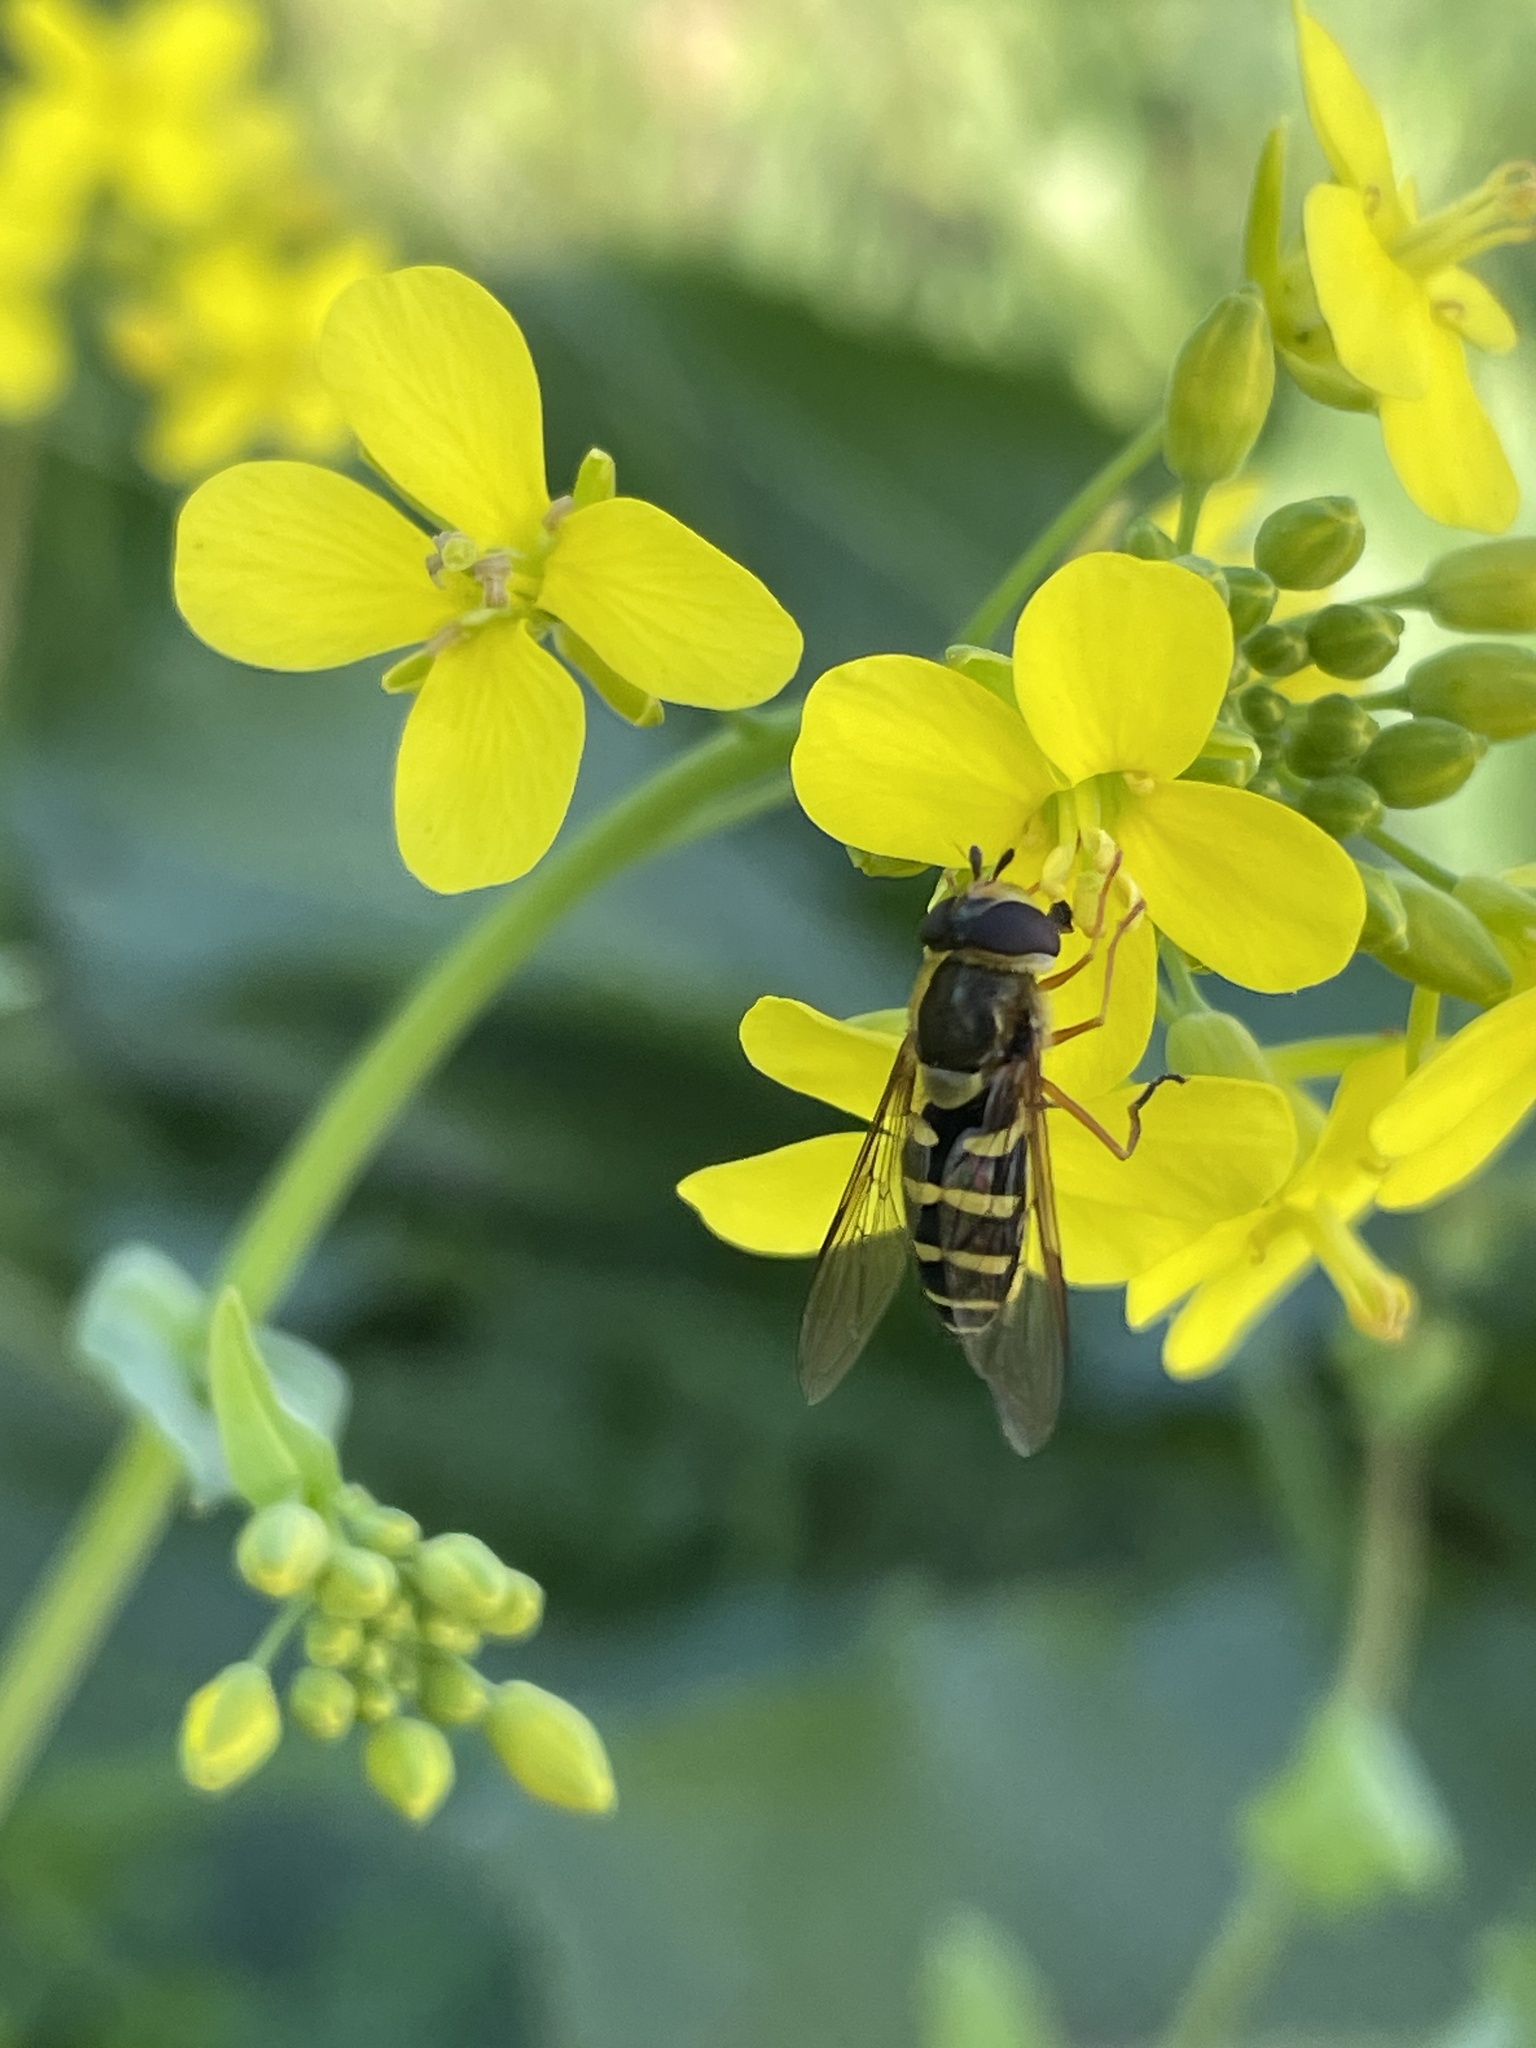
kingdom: Animalia
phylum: Arthropoda
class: Insecta
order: Diptera
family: Syrphidae
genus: Syrphus
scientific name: Syrphus opinator
